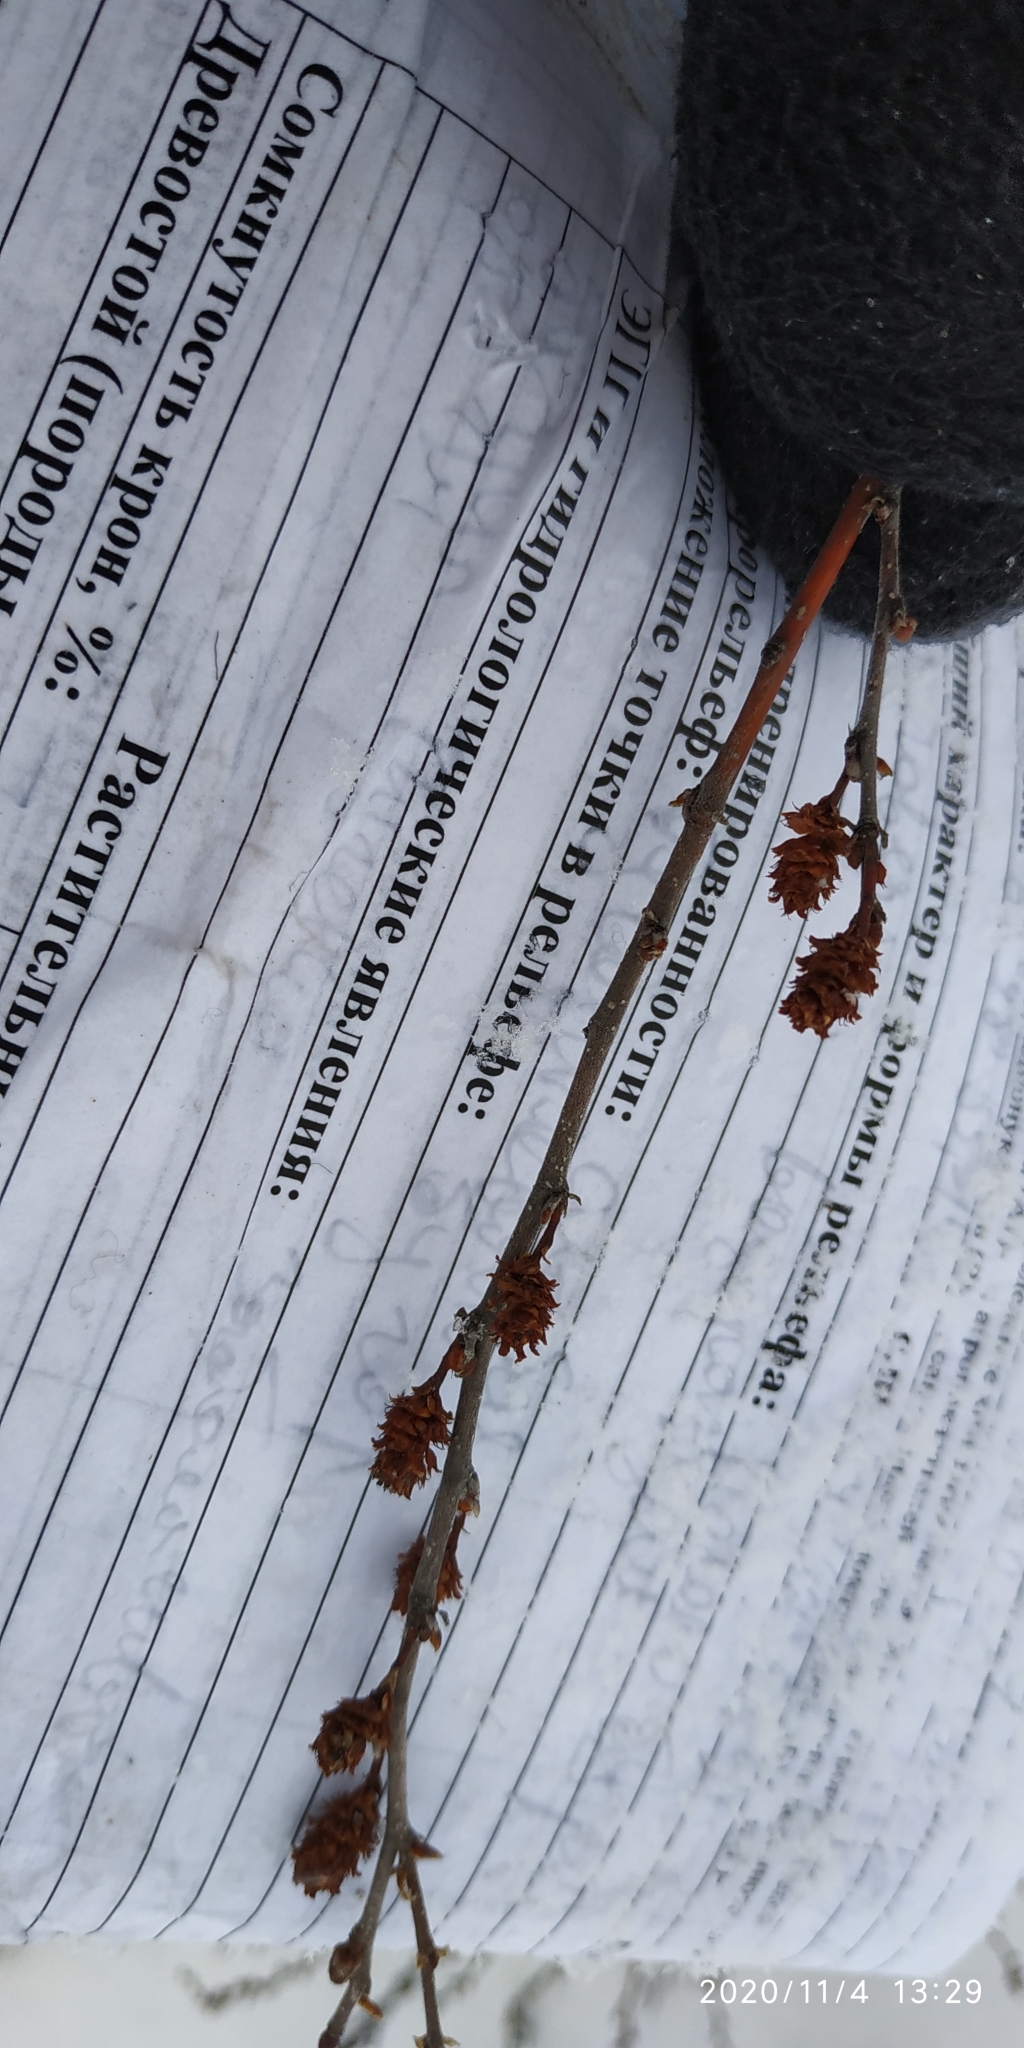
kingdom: Plantae
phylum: Tracheophyta
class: Magnoliopsida
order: Fagales
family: Betulaceae
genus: Betula
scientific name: Betula nana
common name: Arctic dwarf birch
